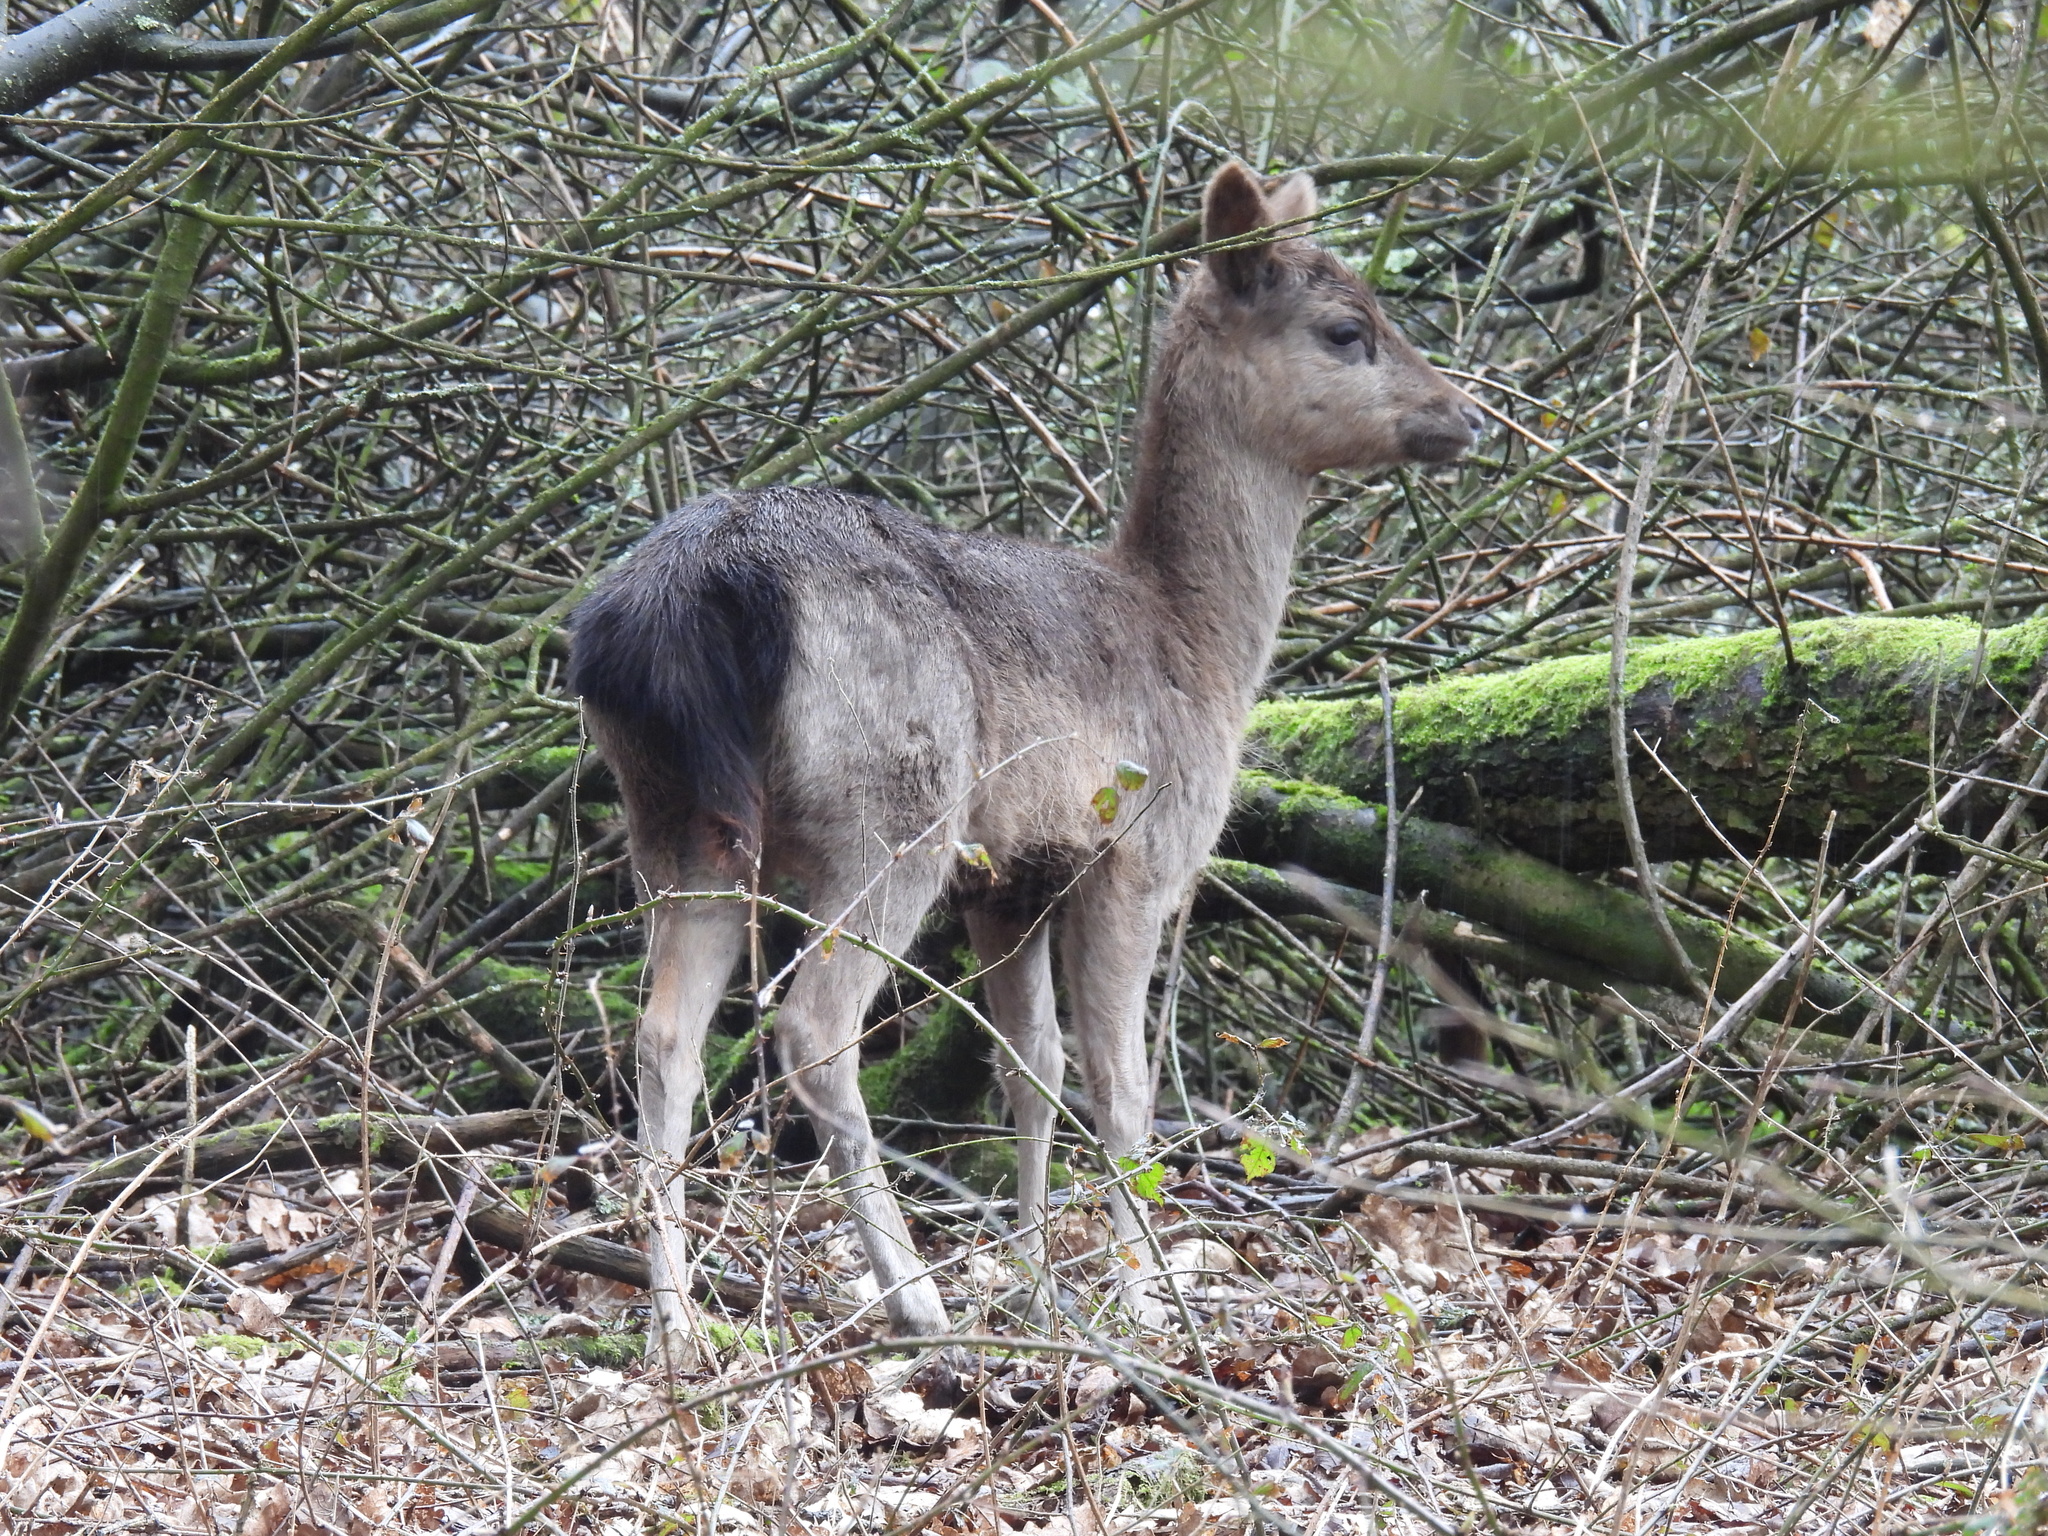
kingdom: Animalia
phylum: Chordata
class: Mammalia
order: Artiodactyla
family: Cervidae
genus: Dama
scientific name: Dama dama
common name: Fallow deer
